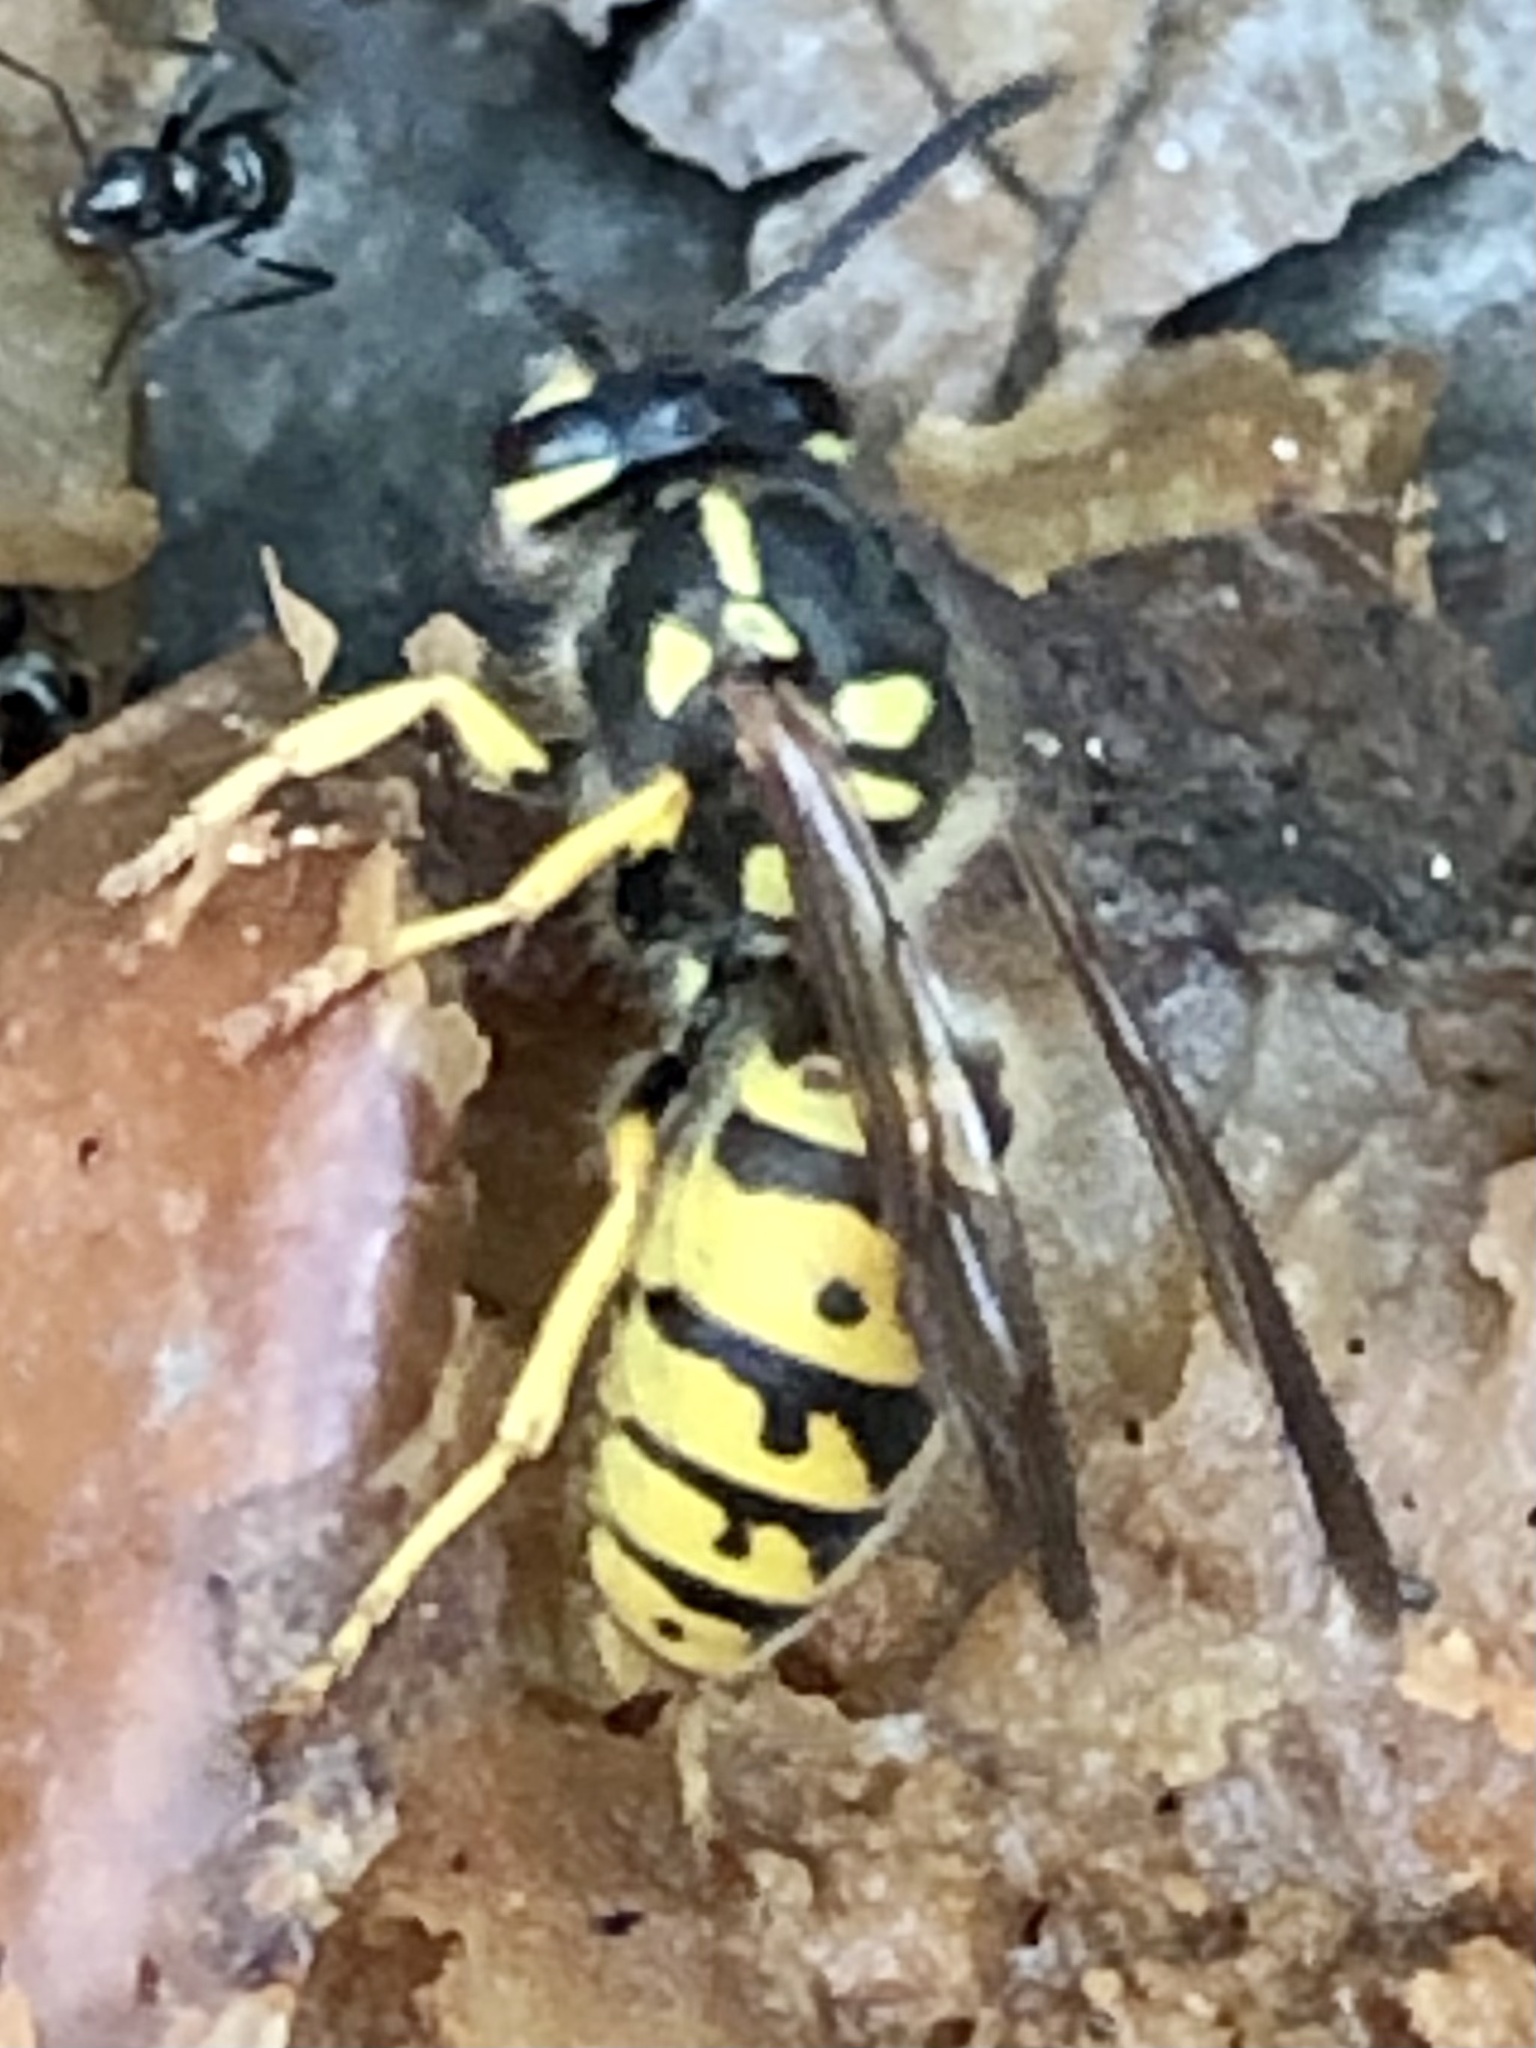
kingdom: Animalia
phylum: Arthropoda
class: Insecta
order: Hymenoptera
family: Vespidae
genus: Vespula
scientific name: Vespula germanica
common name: German wasp
